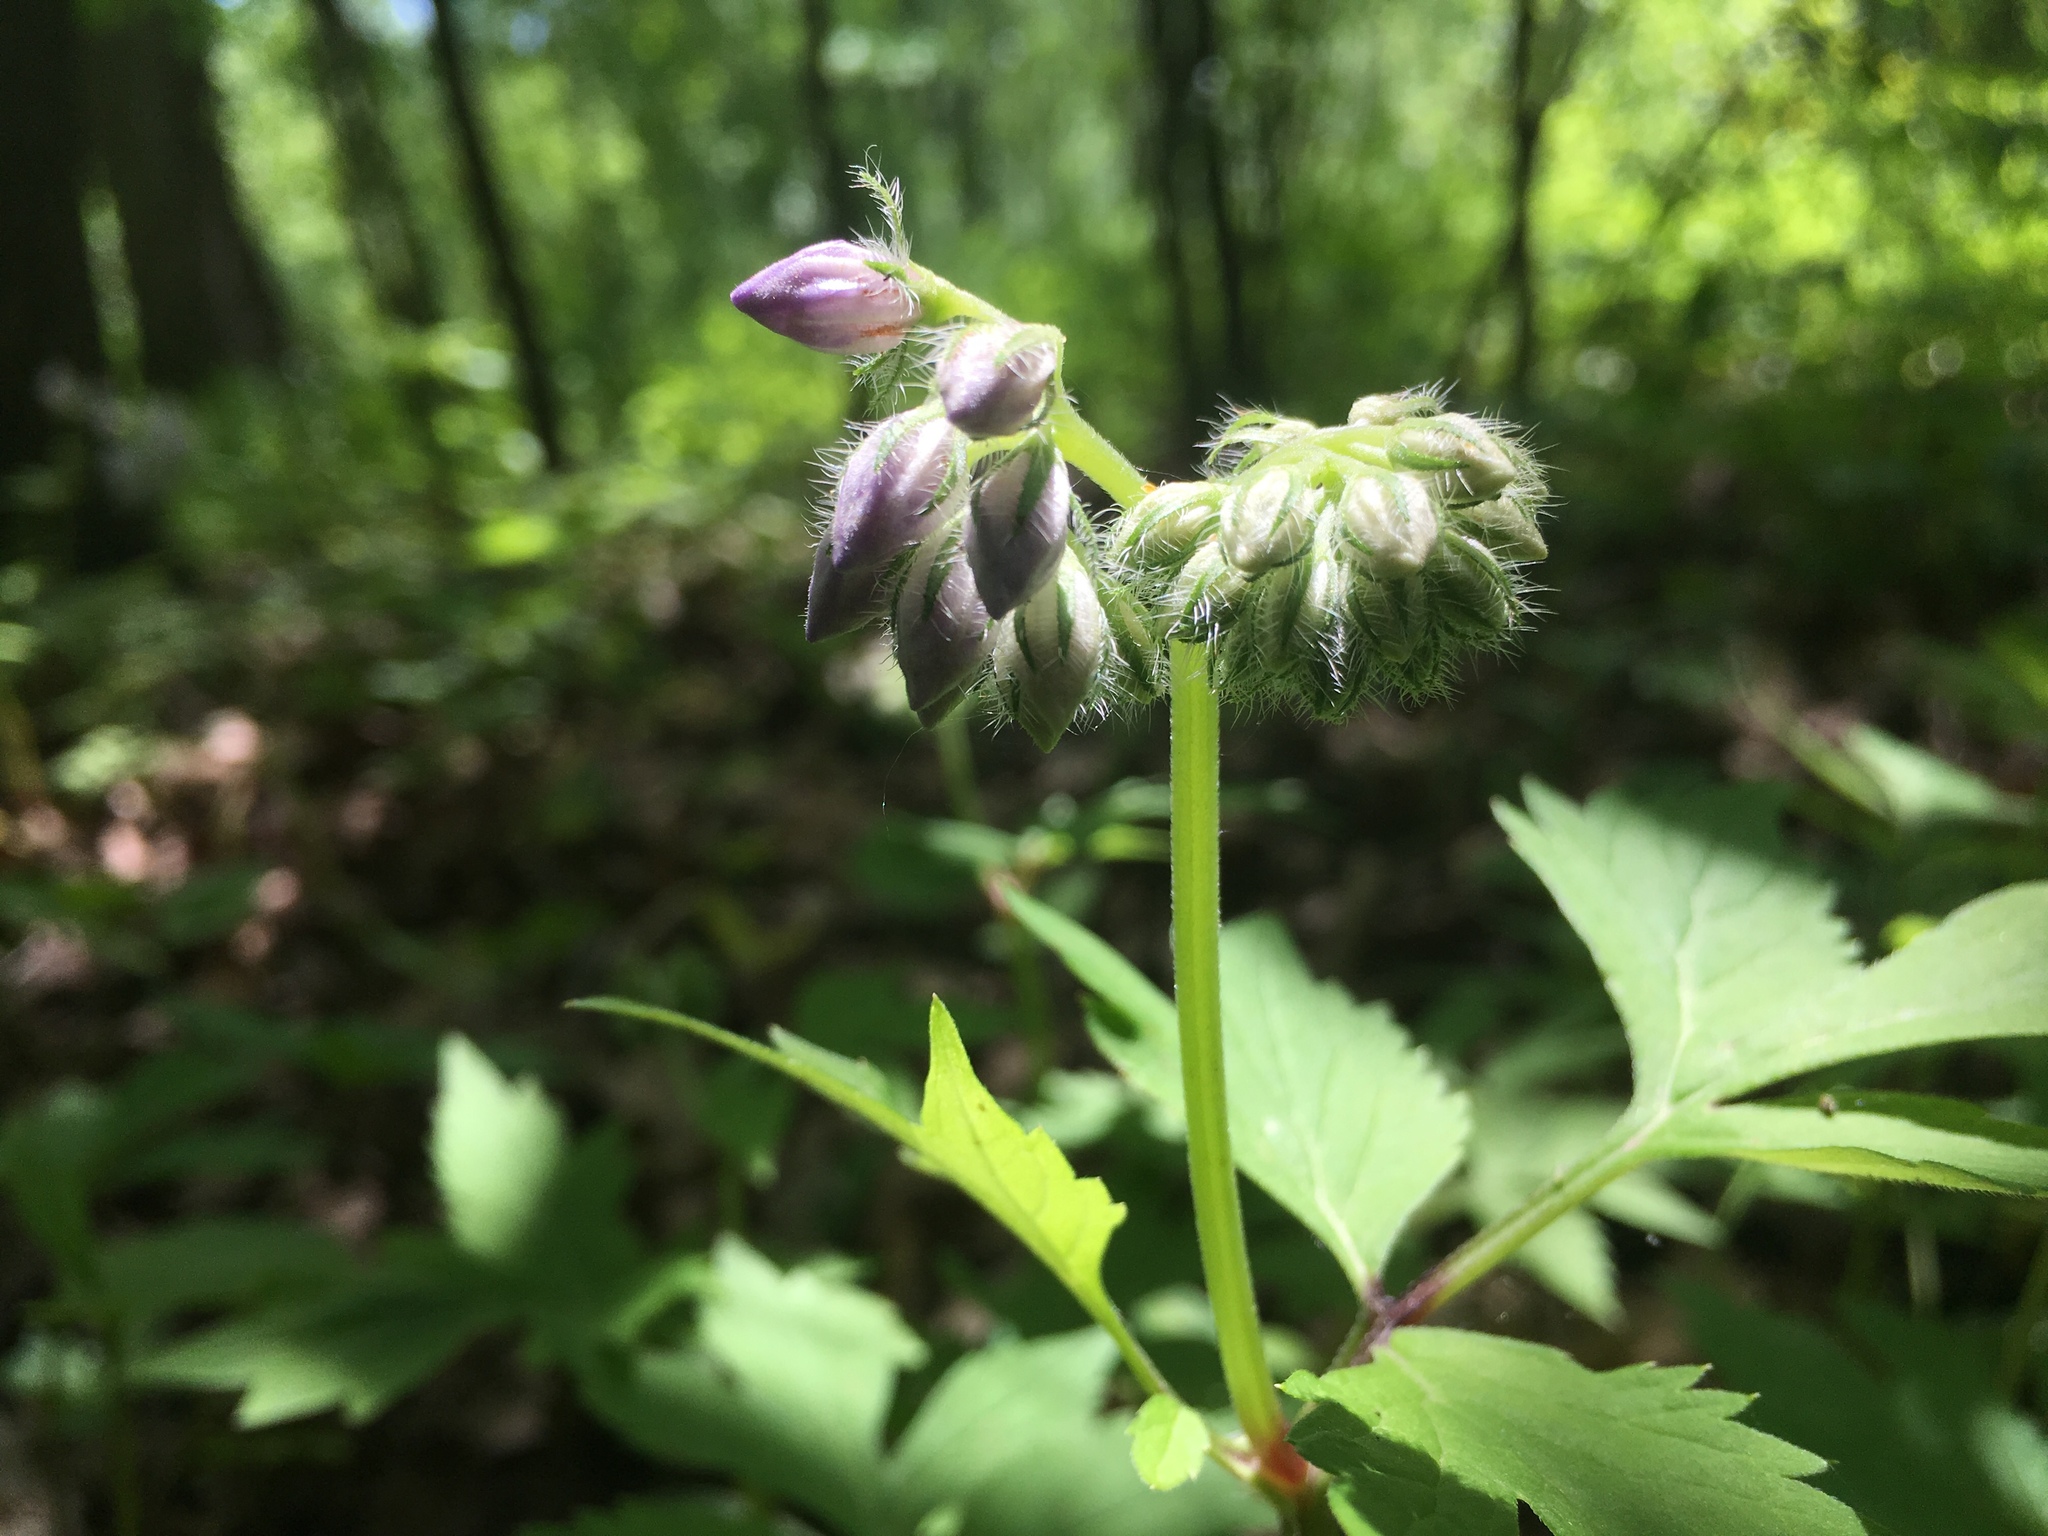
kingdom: Plantae
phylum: Tracheophyta
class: Magnoliopsida
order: Boraginales
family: Hydrophyllaceae
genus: Hydrophyllum
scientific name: Hydrophyllum virginianum
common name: Virginia waterleaf
